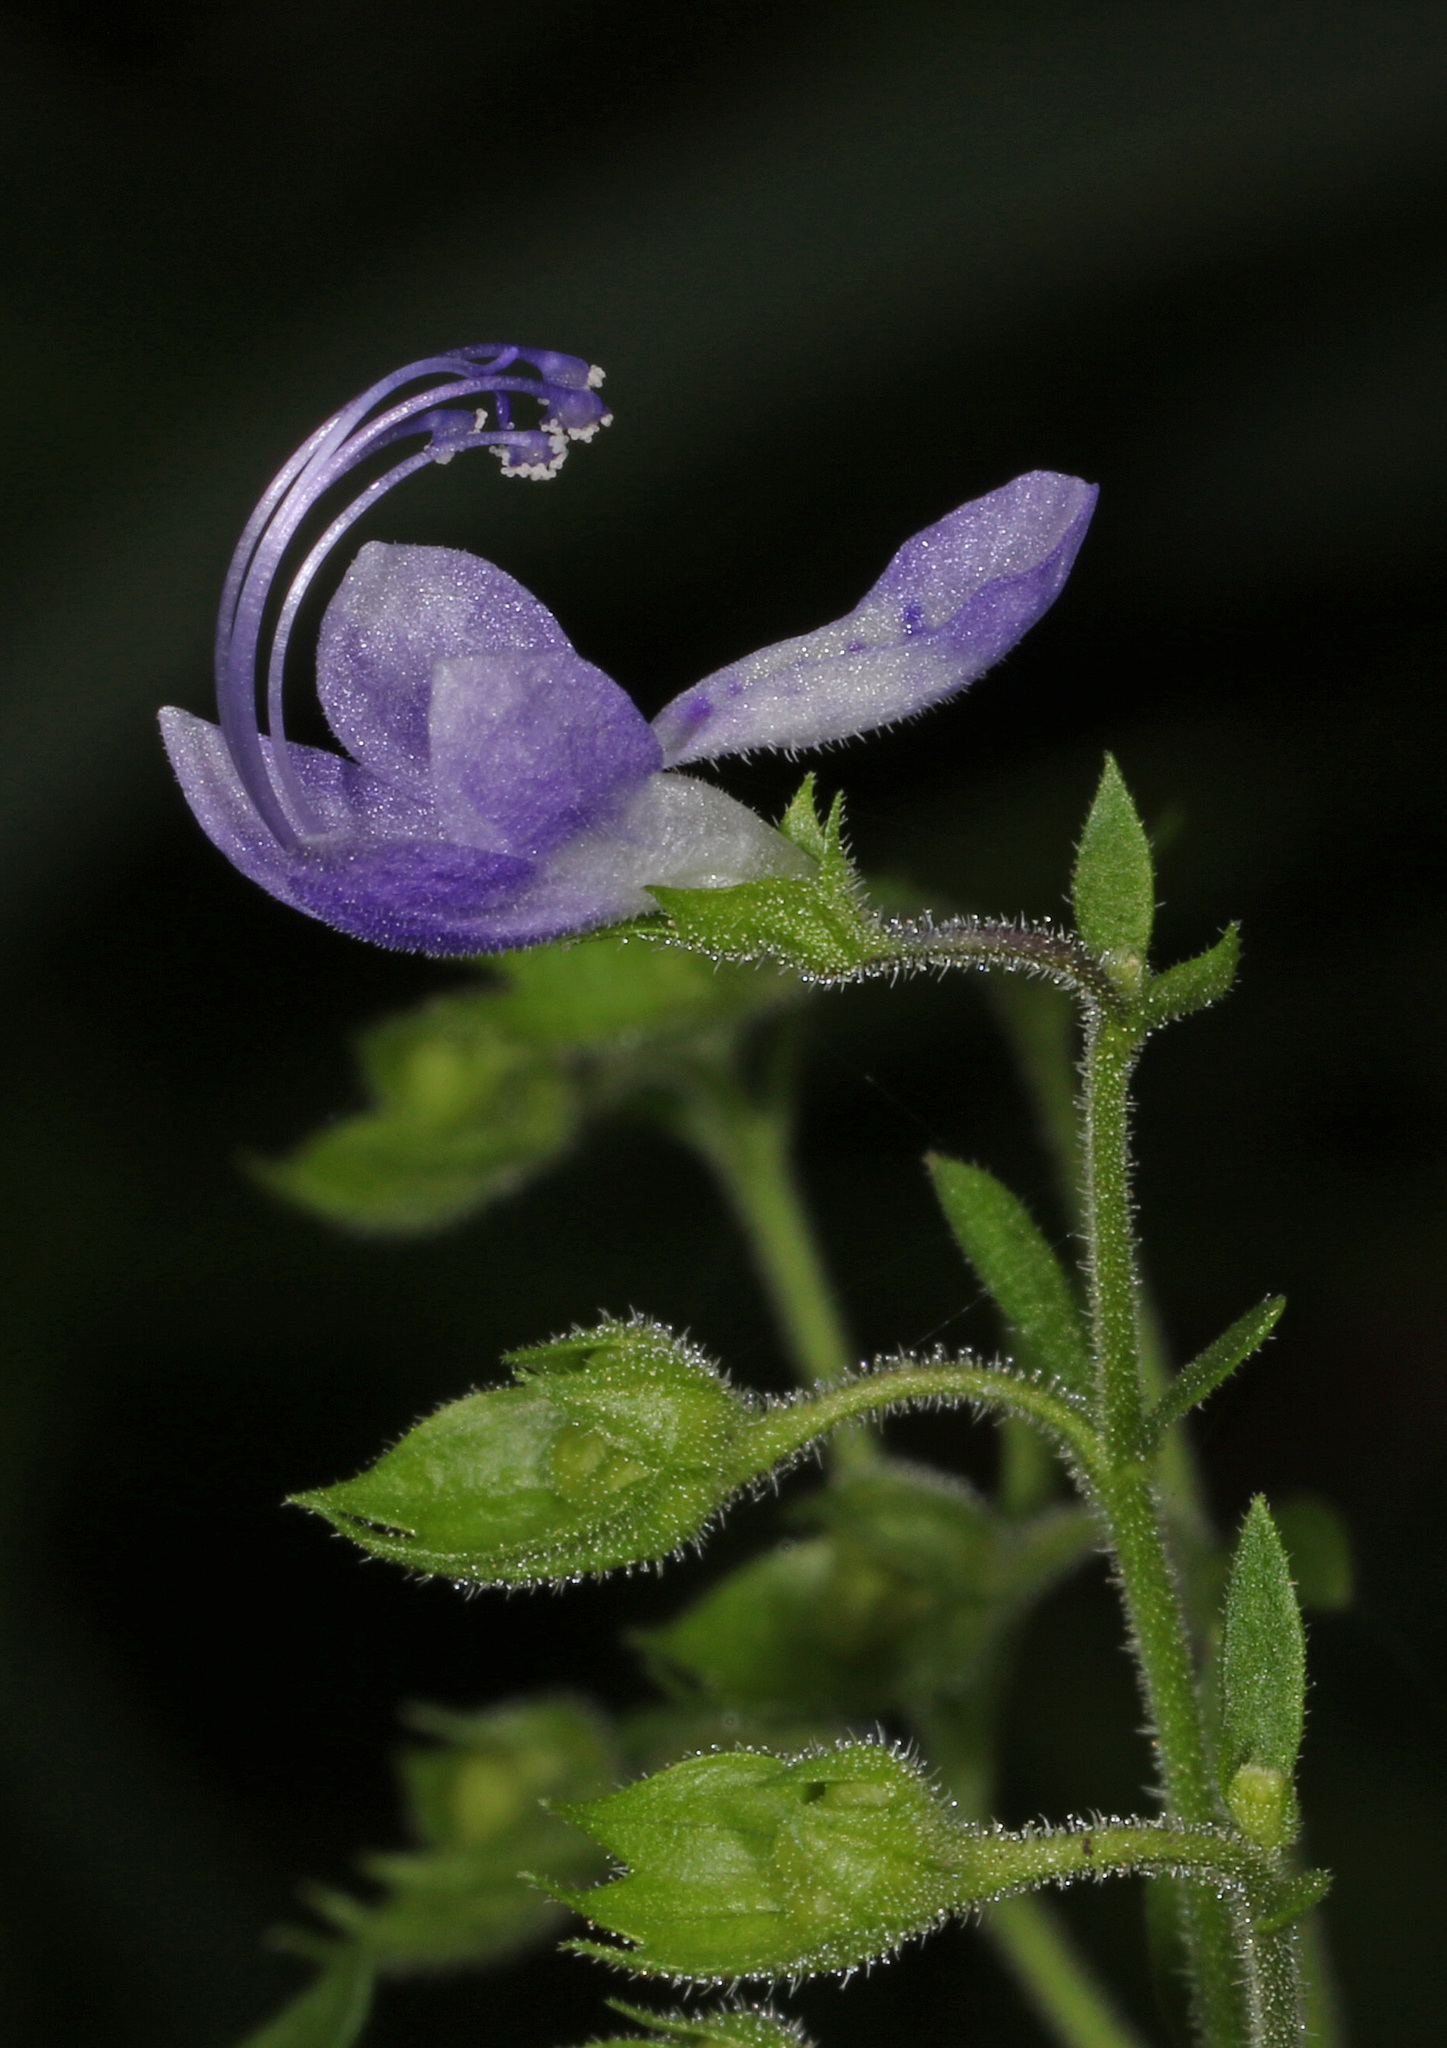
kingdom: Plantae
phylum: Tracheophyta
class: Magnoliopsida
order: Lamiales
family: Lamiaceae
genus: Trichostema
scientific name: Trichostema dichotomum
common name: Bastard pennyroyal
